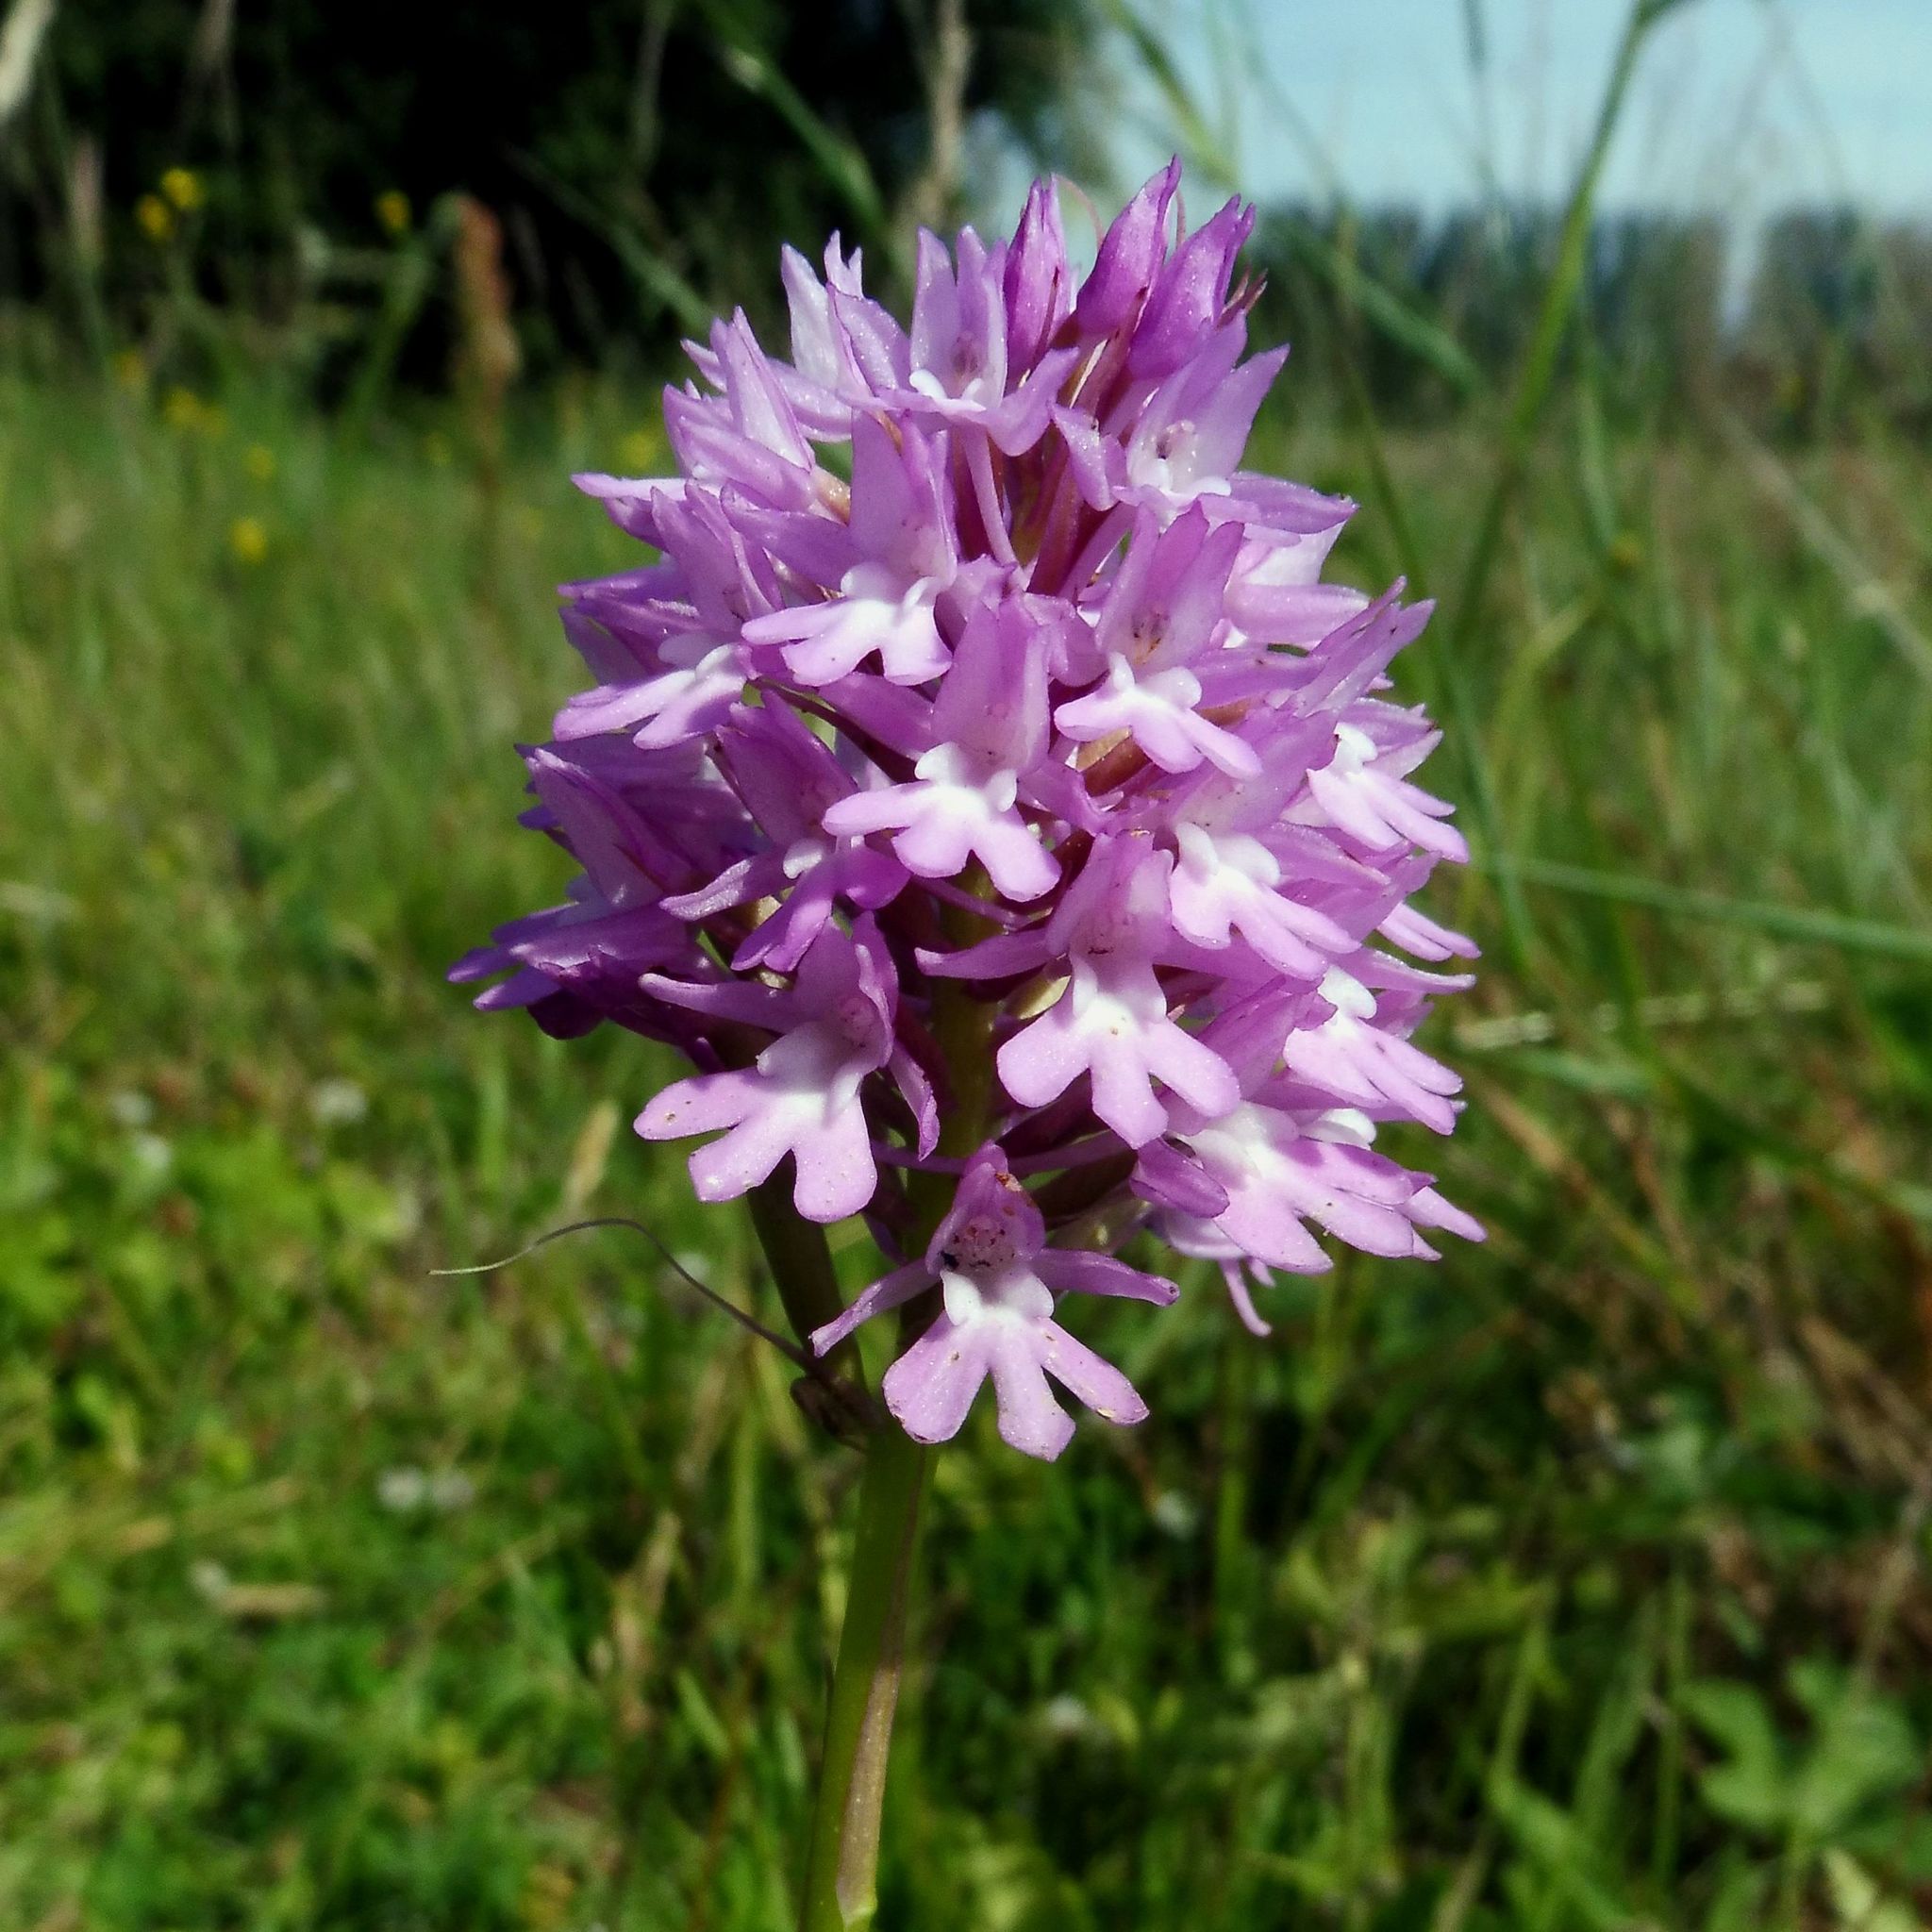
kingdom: Plantae
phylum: Tracheophyta
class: Liliopsida
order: Asparagales
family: Orchidaceae
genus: Anacamptis
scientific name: Anacamptis pyramidalis
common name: Pyramidal orchid
